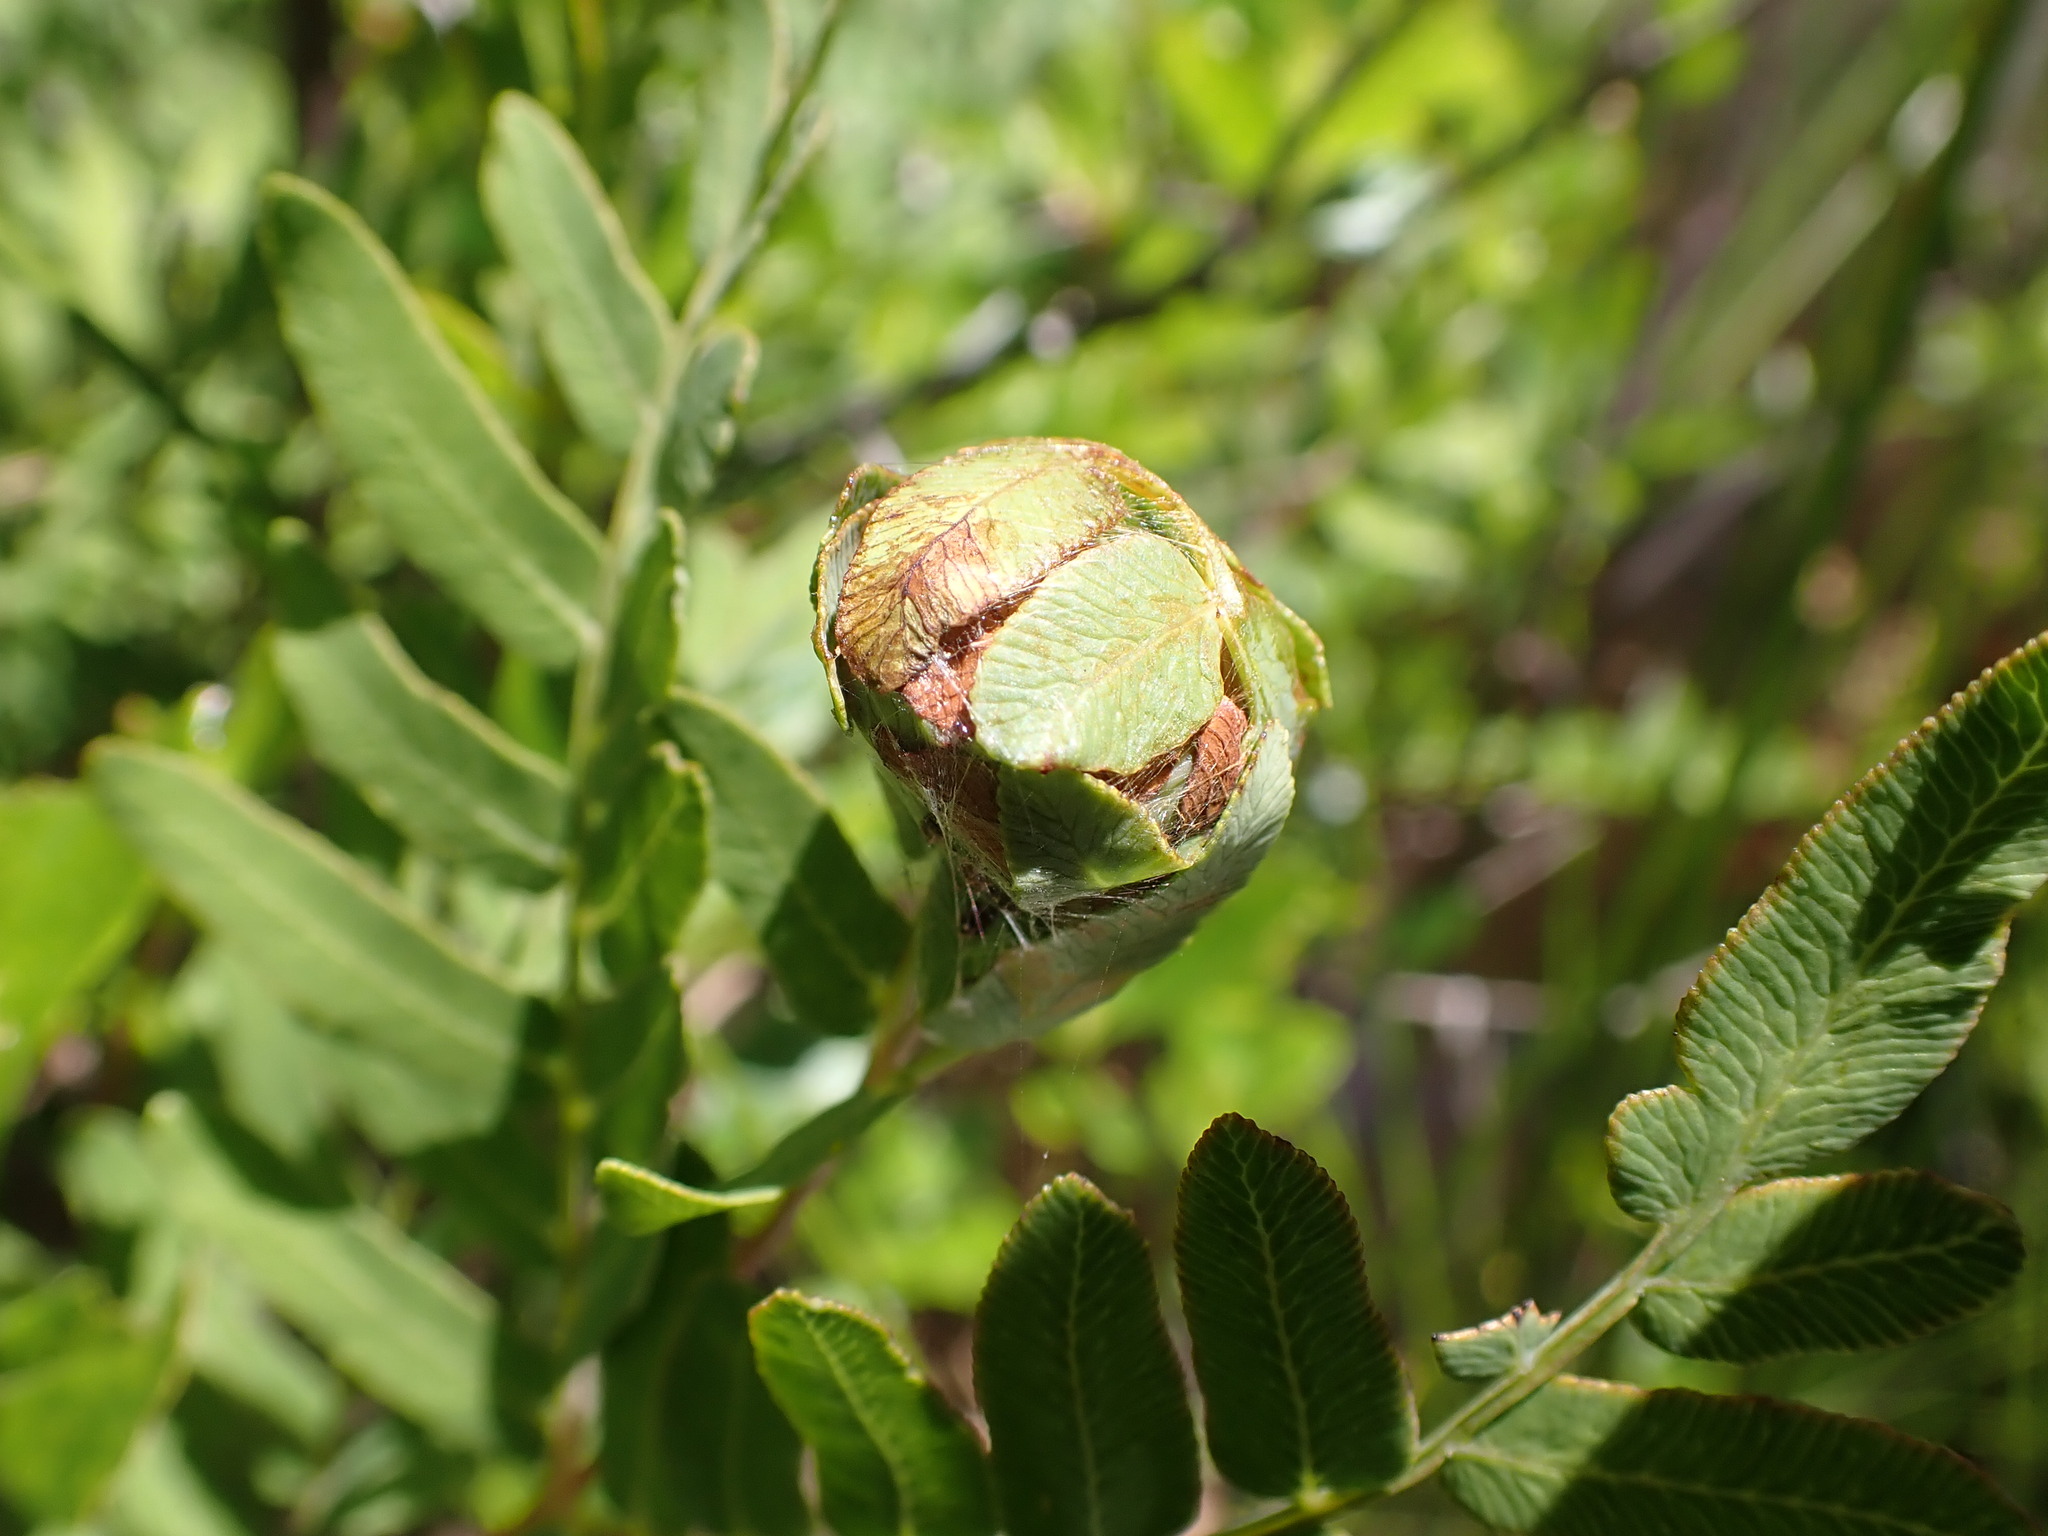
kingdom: Plantae
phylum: Tracheophyta
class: Polypodiopsida
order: Osmundales
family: Osmundaceae
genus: Osmunda
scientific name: Osmunda spectabilis
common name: American royal fern
